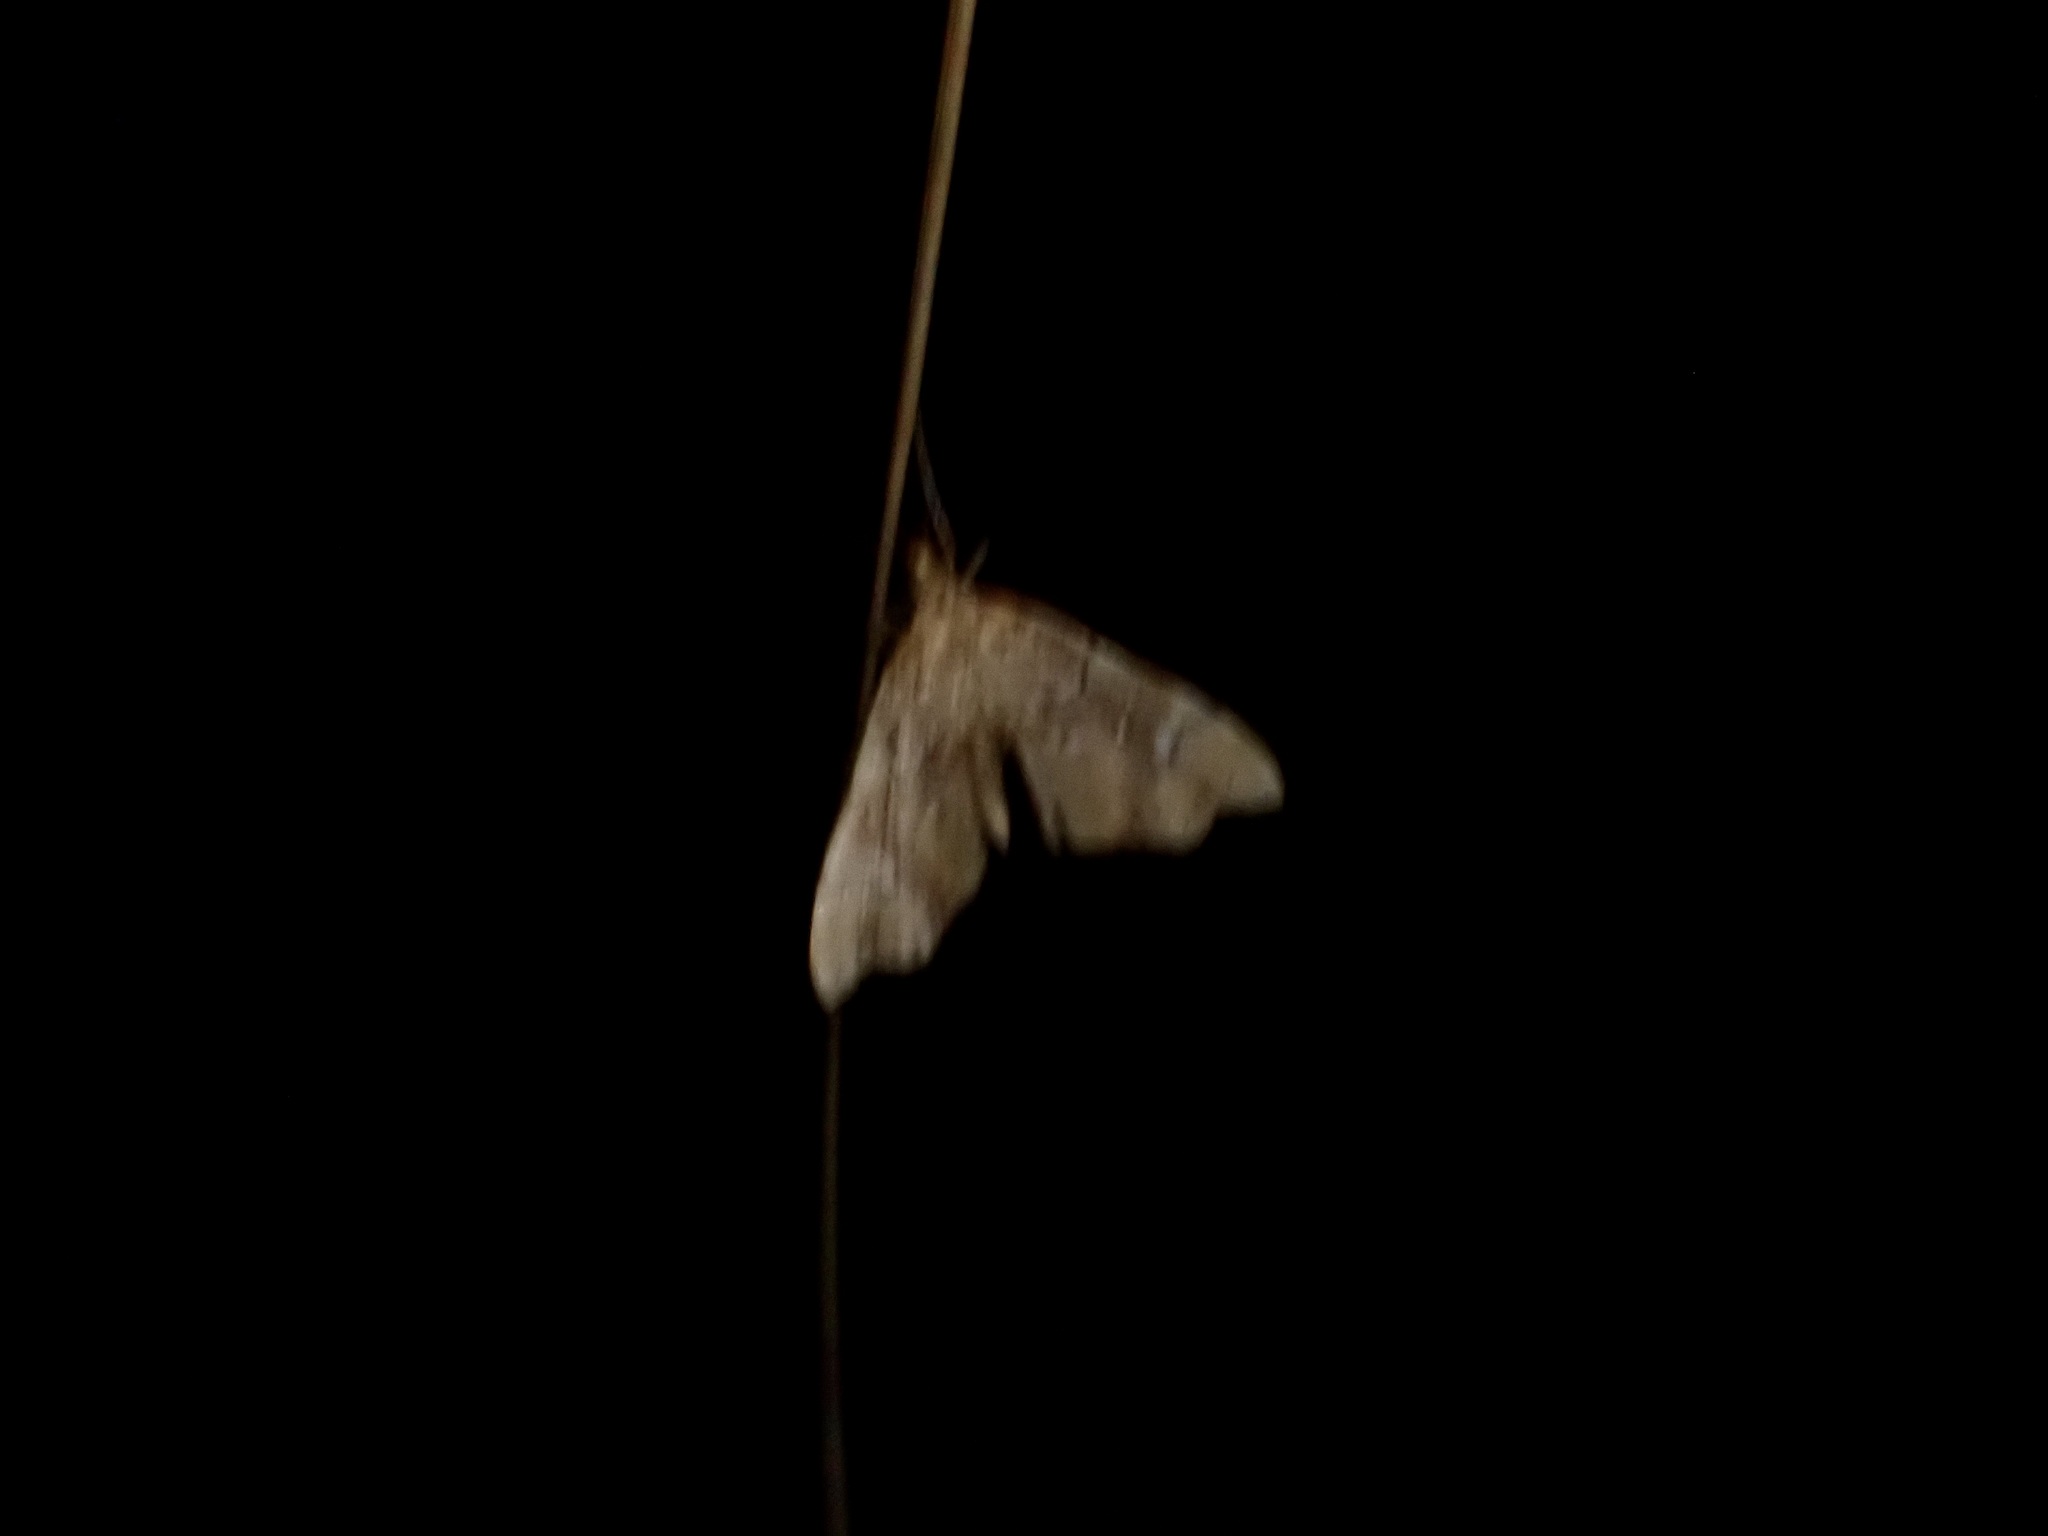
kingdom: Animalia
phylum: Arthropoda
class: Insecta
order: Lepidoptera
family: Pyralidae
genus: Musotima
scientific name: Musotima nitidalis
